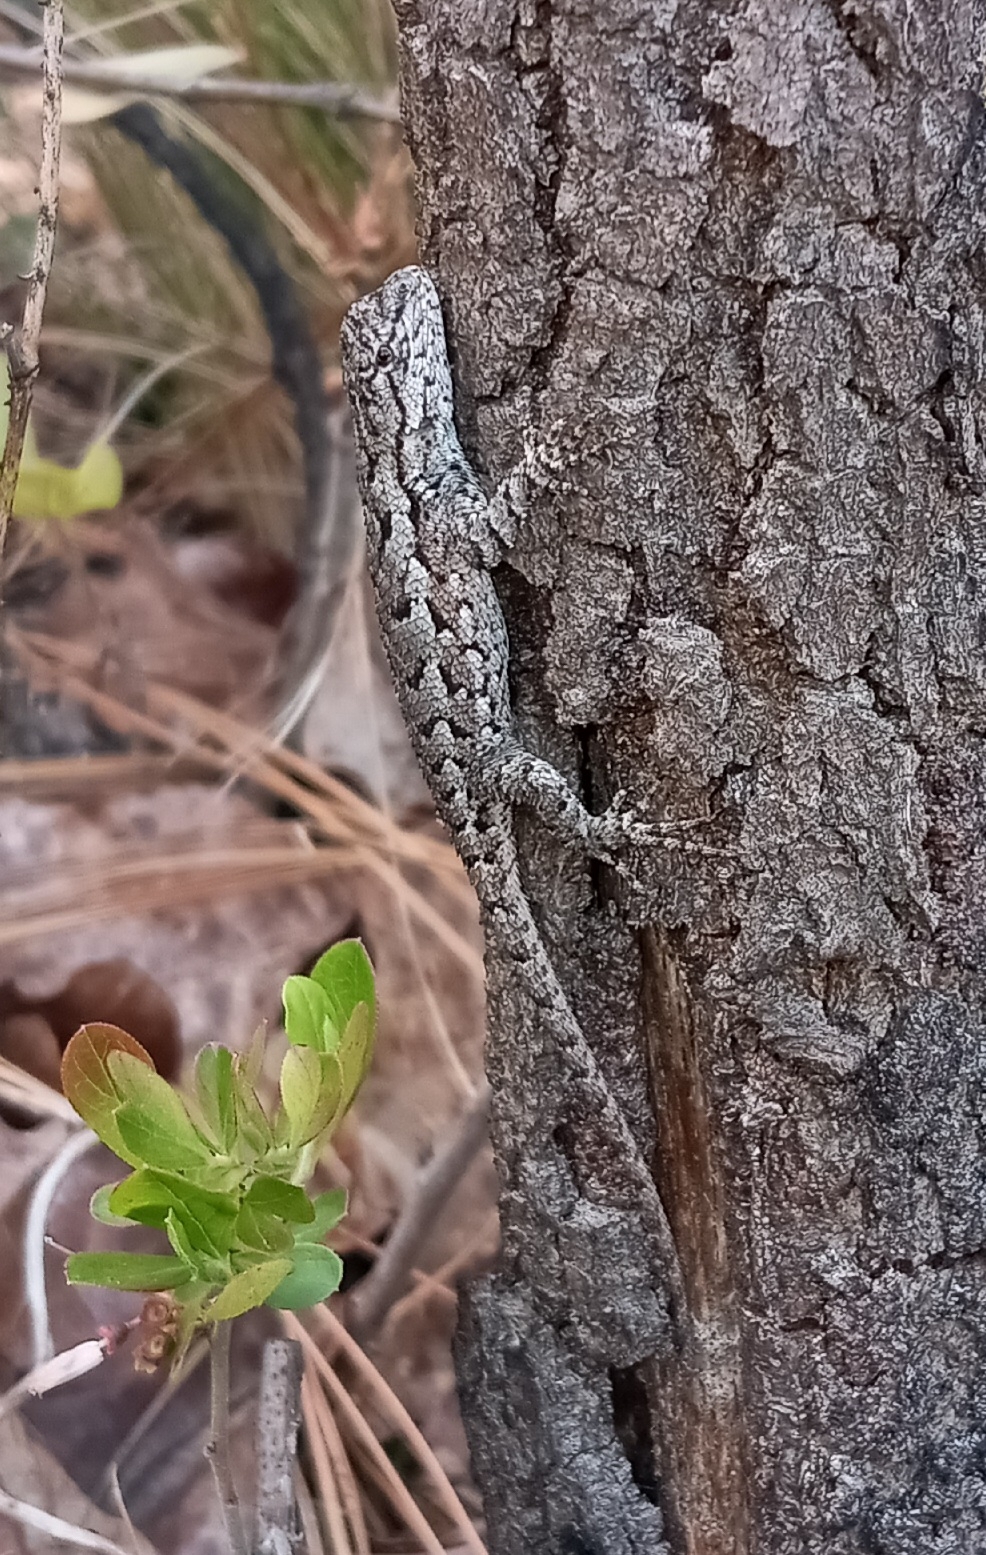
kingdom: Animalia
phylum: Chordata
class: Squamata
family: Phrynosomatidae
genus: Sceloporus
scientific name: Sceloporus undulatus
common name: Eastern fence lizard
